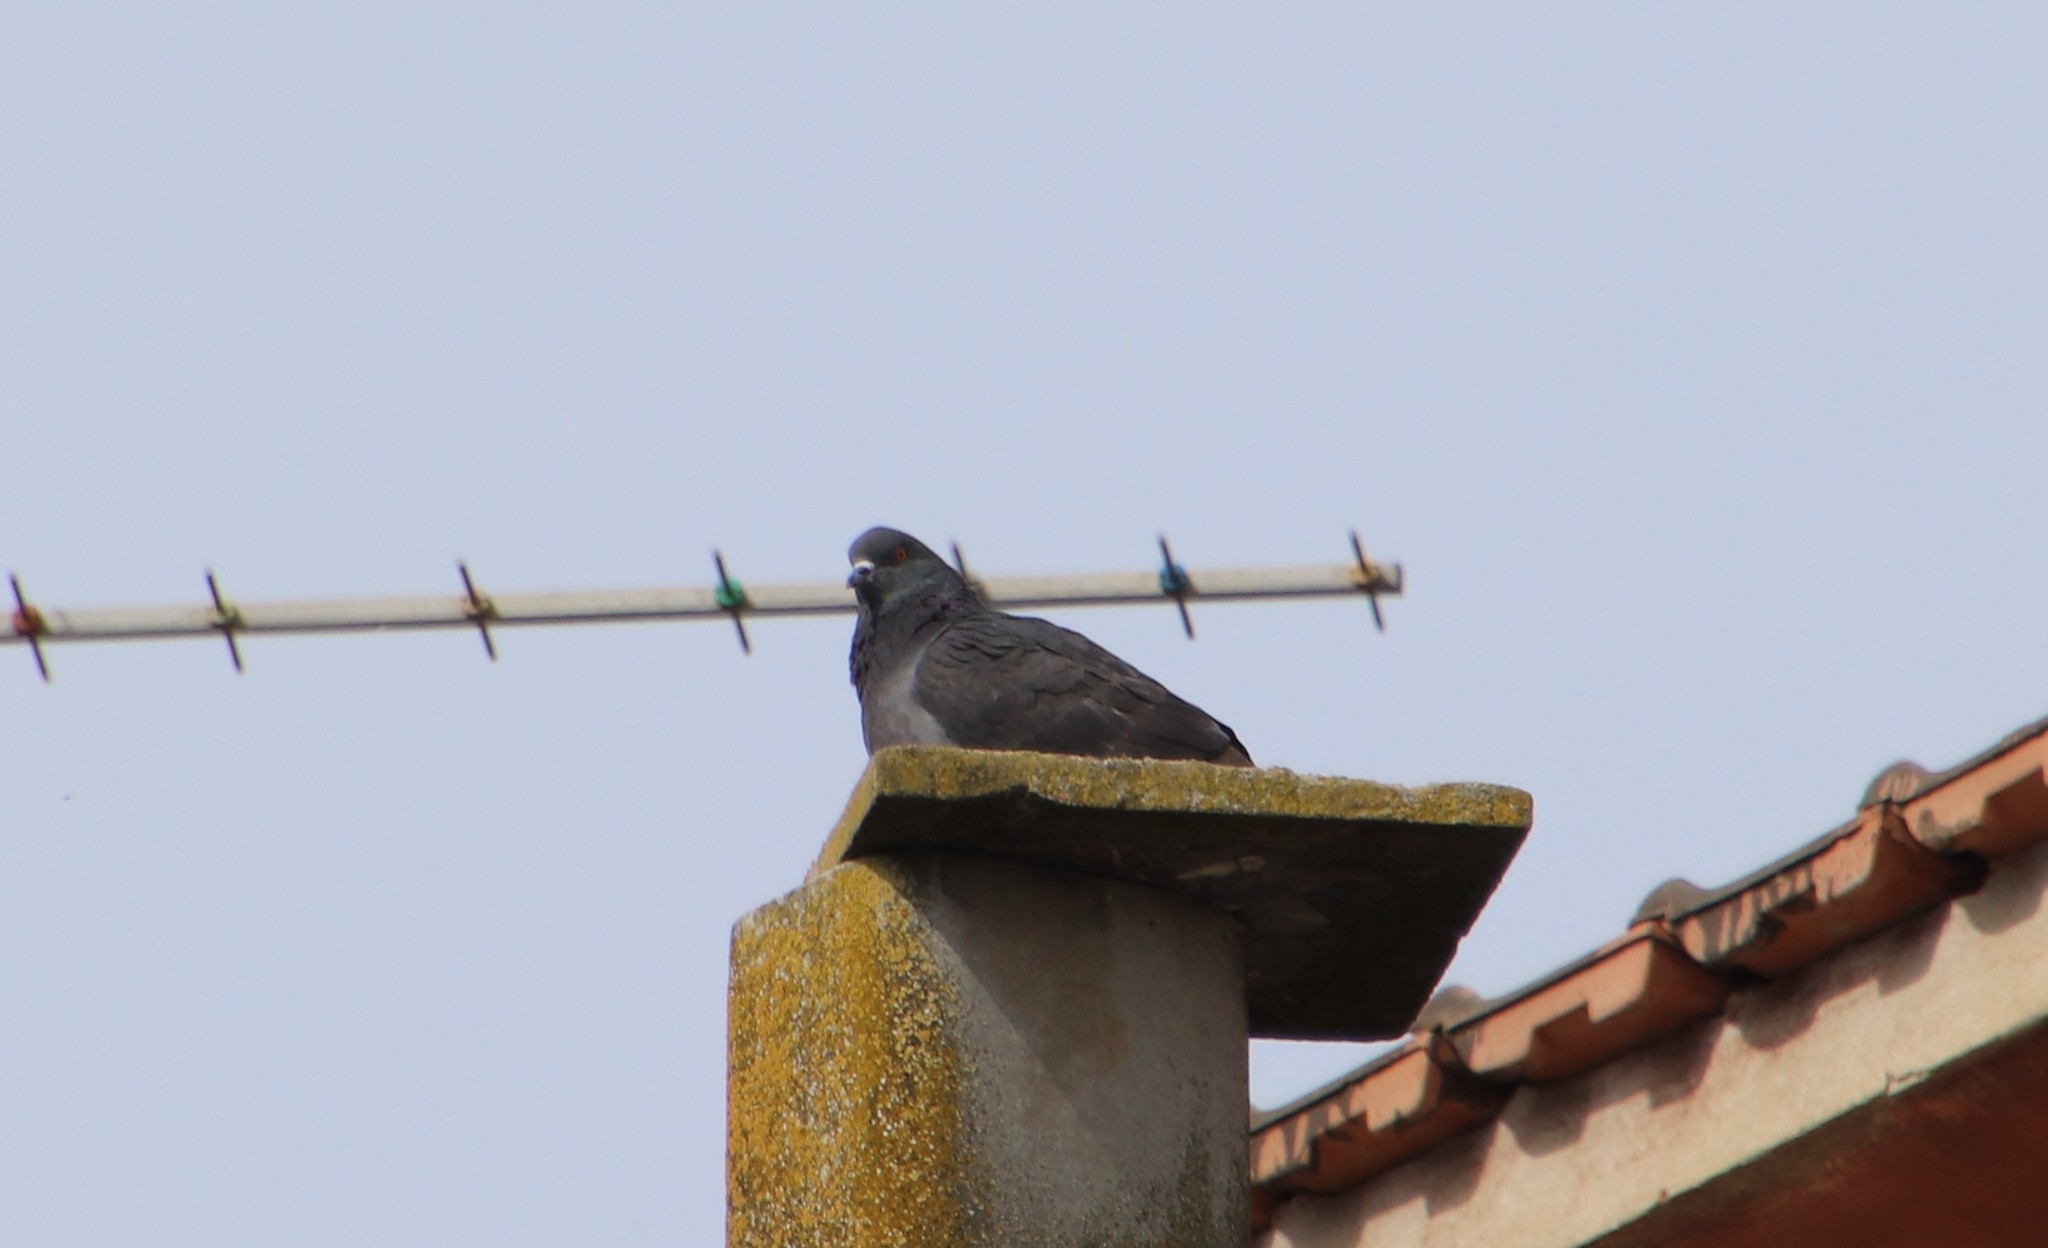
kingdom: Animalia
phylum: Chordata
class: Aves
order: Columbiformes
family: Columbidae
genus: Columba
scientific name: Columba livia
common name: Rock pigeon
